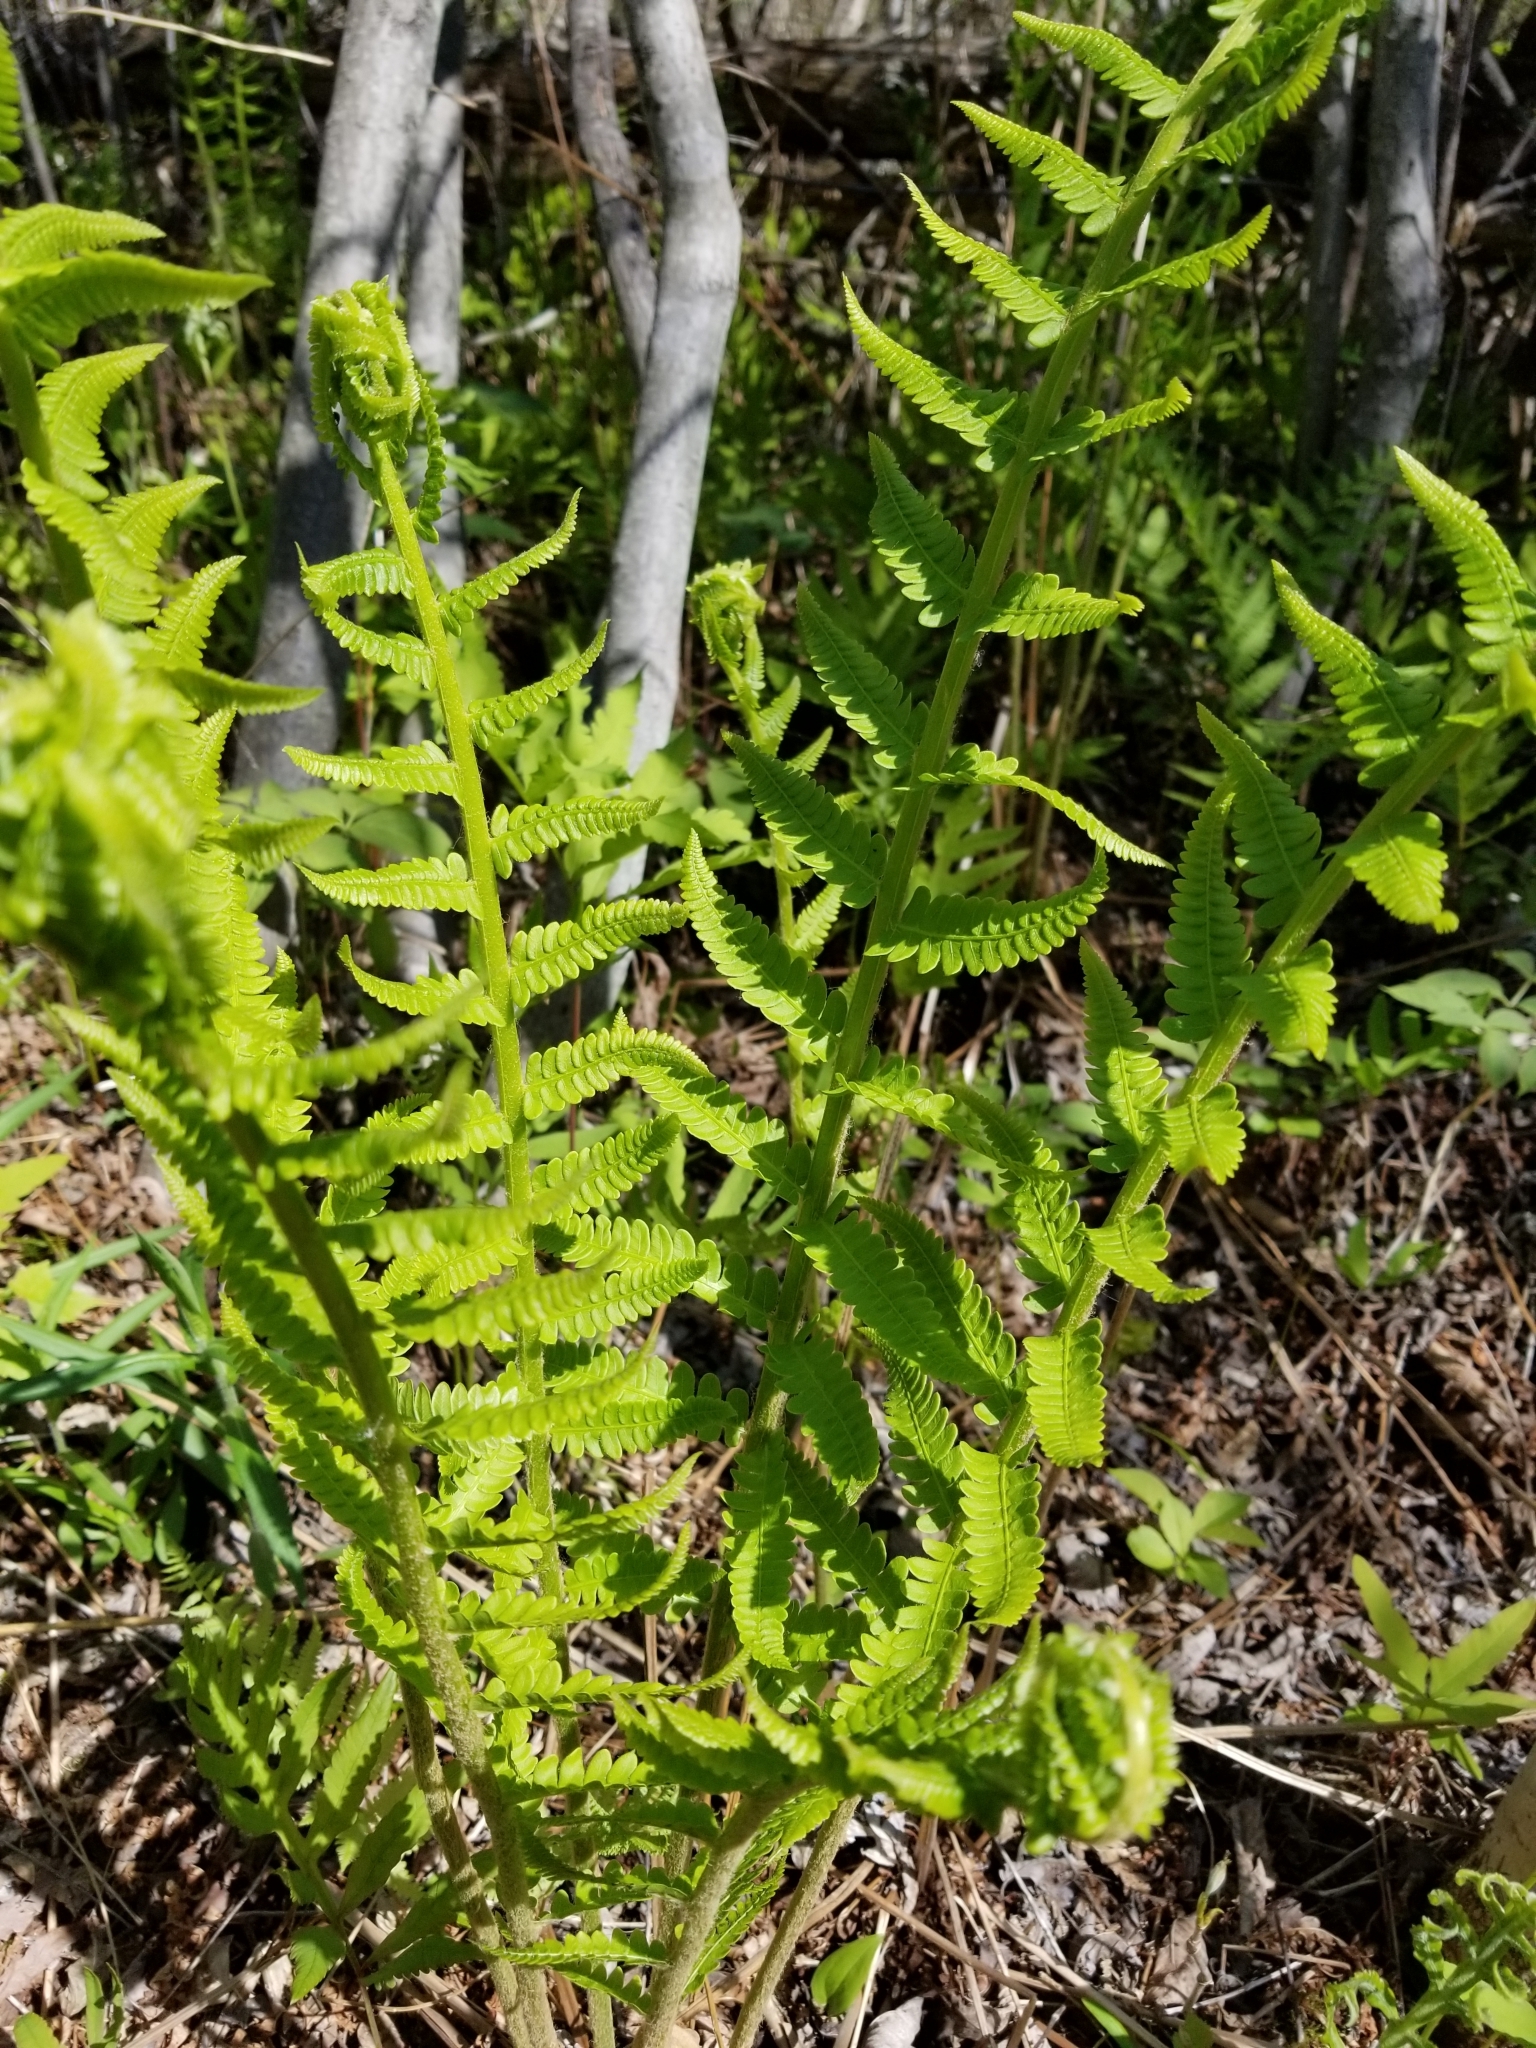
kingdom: Plantae
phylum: Tracheophyta
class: Polypodiopsida
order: Osmundales
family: Osmundaceae
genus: Osmundastrum
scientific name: Osmundastrum cinnamomeum
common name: Cinnamon fern
